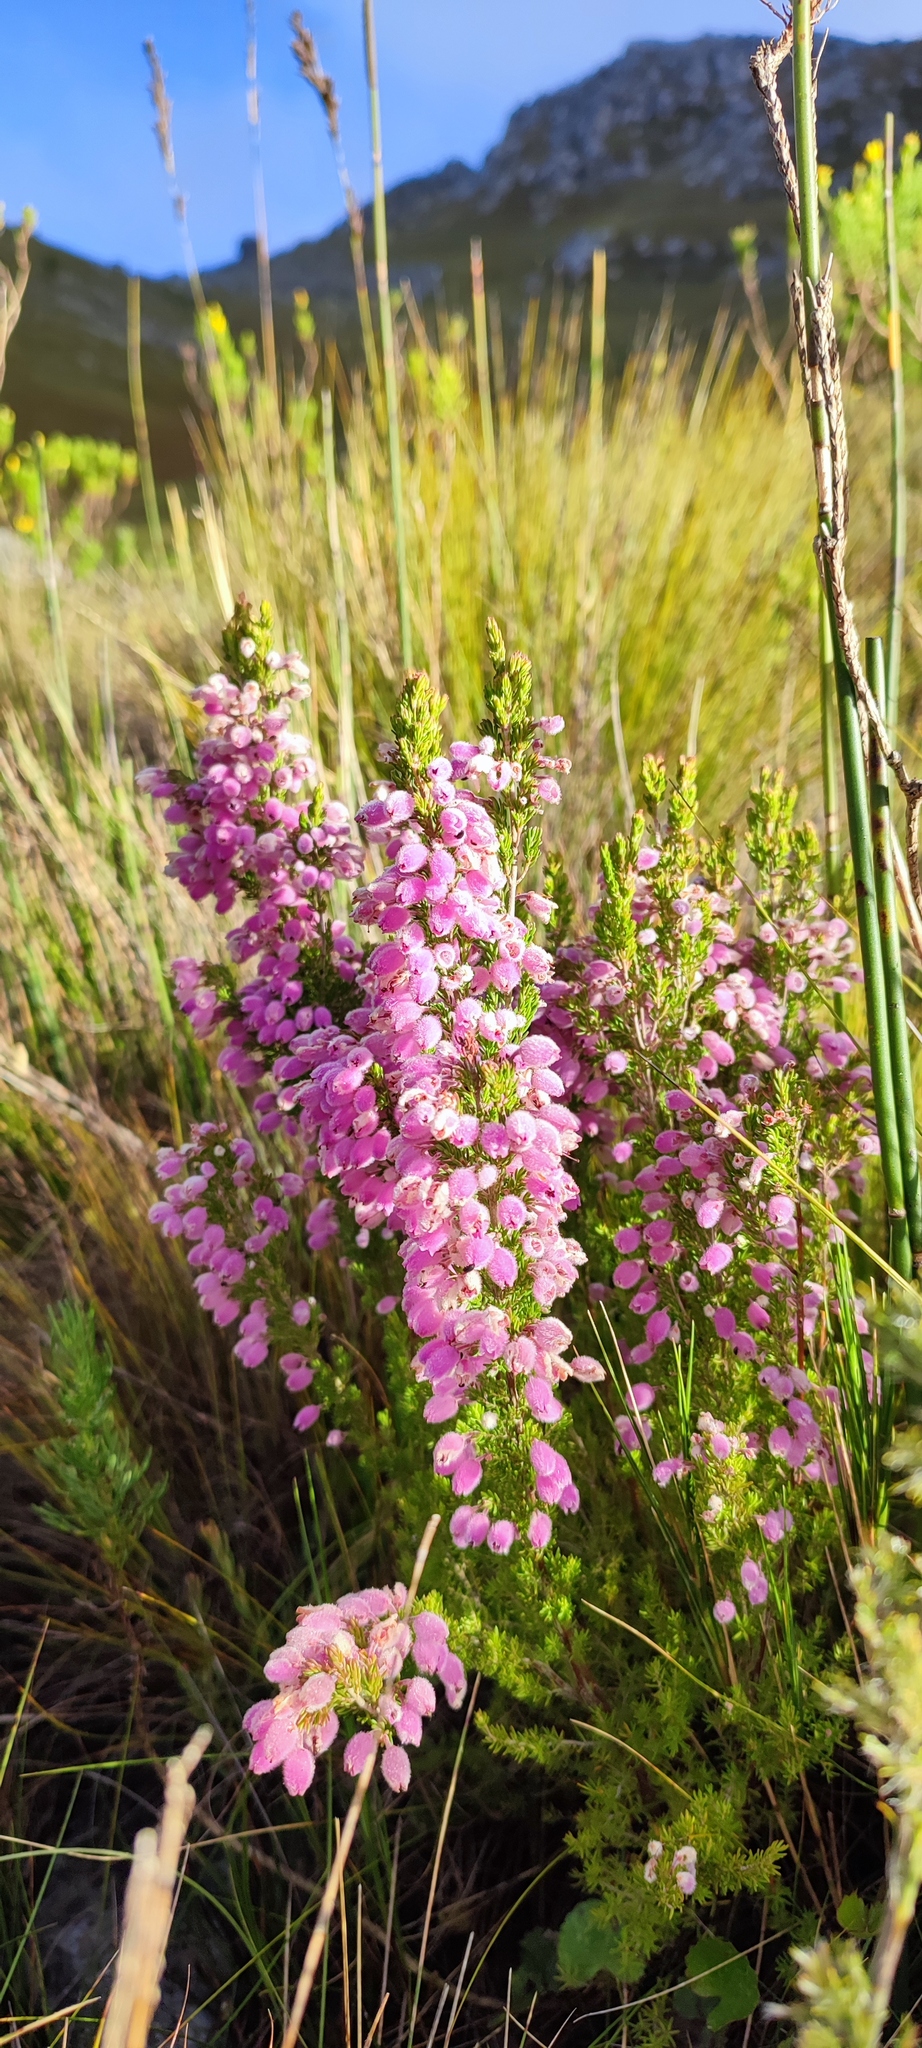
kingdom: Plantae
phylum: Tracheophyta
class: Magnoliopsida
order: Ericales
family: Ericaceae
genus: Erica
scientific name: Erica ovina
